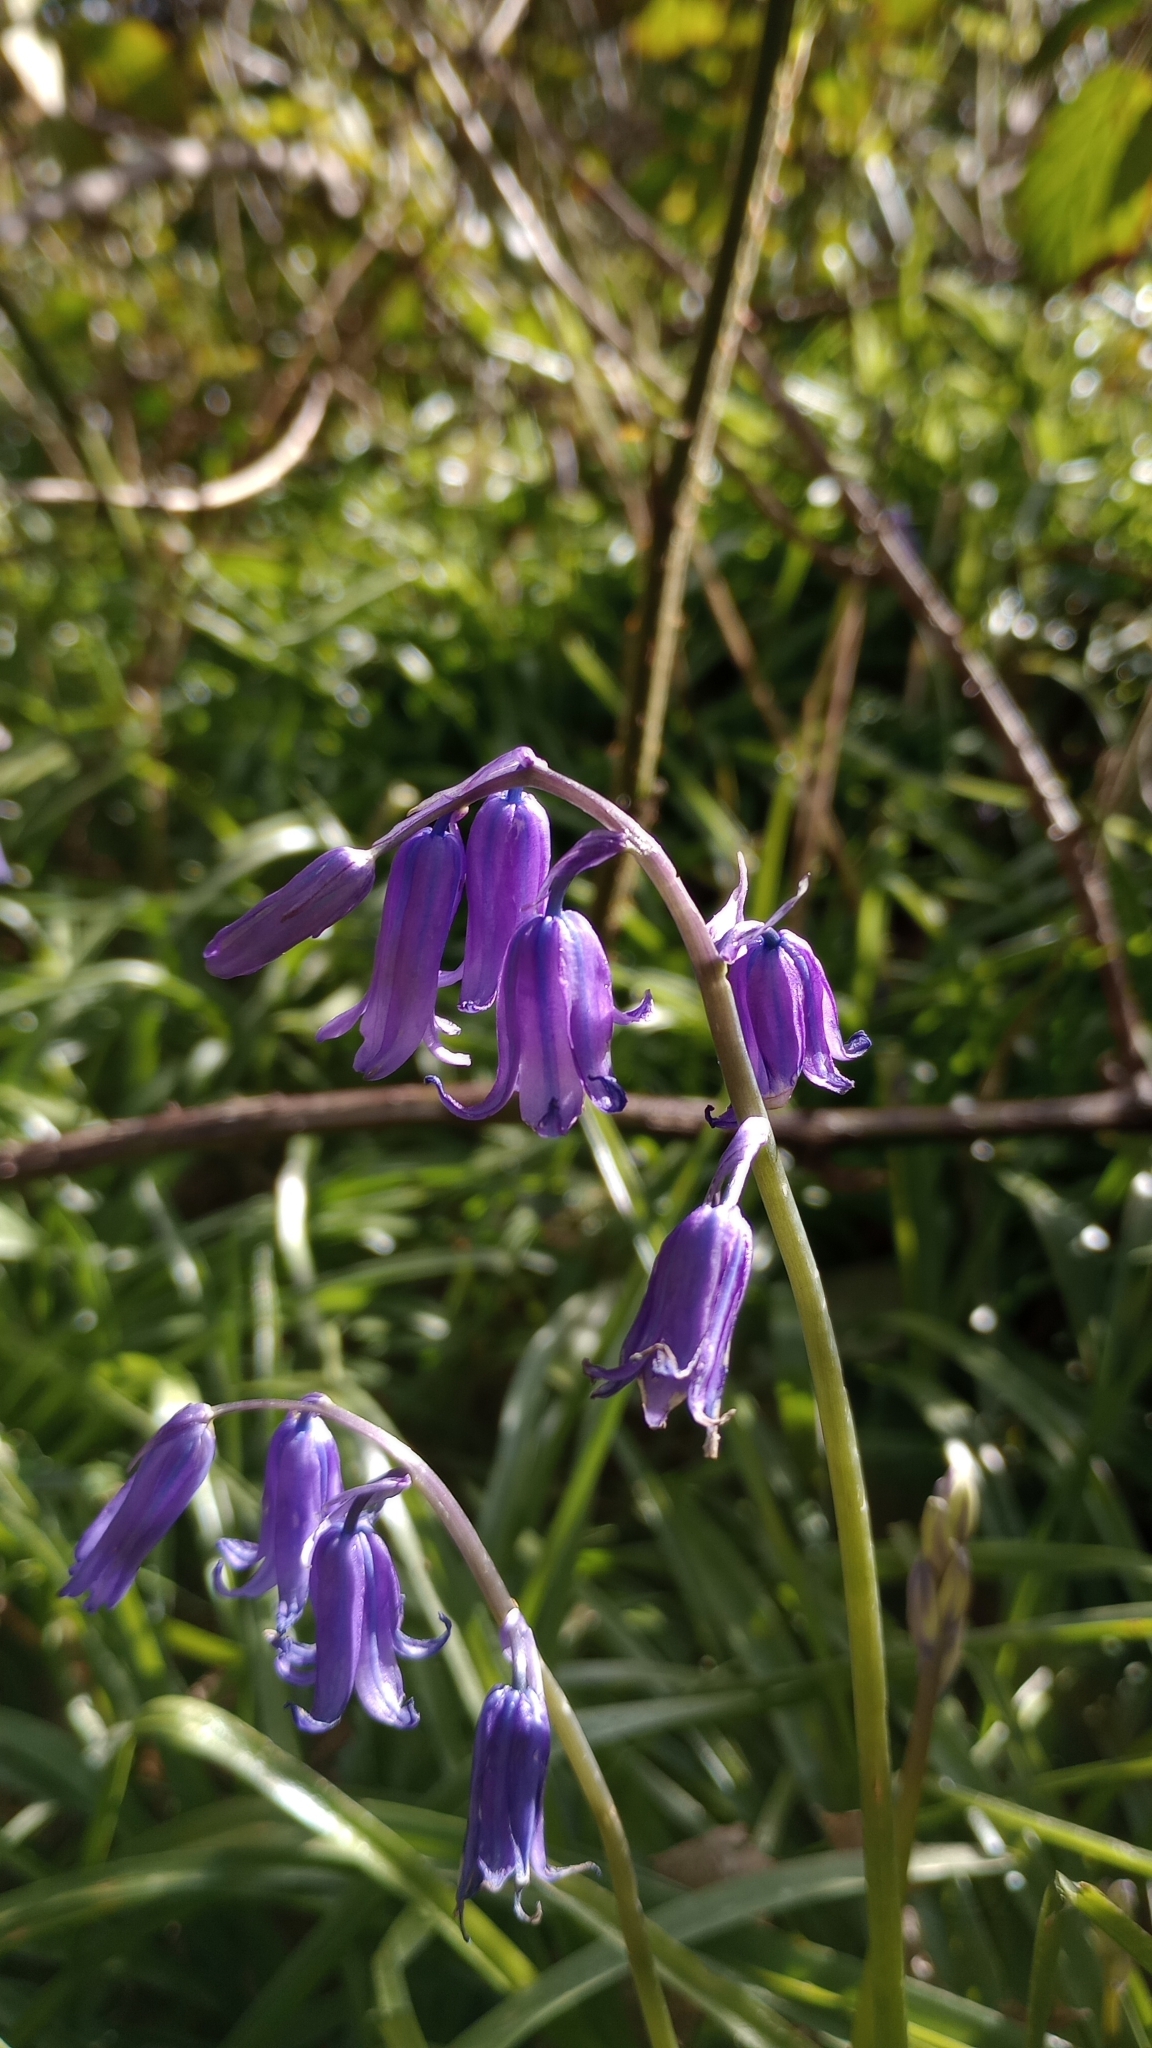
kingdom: Plantae
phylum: Tracheophyta
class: Liliopsida
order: Asparagales
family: Asparagaceae
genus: Hyacinthoides
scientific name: Hyacinthoides non-scripta
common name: Bluebell
